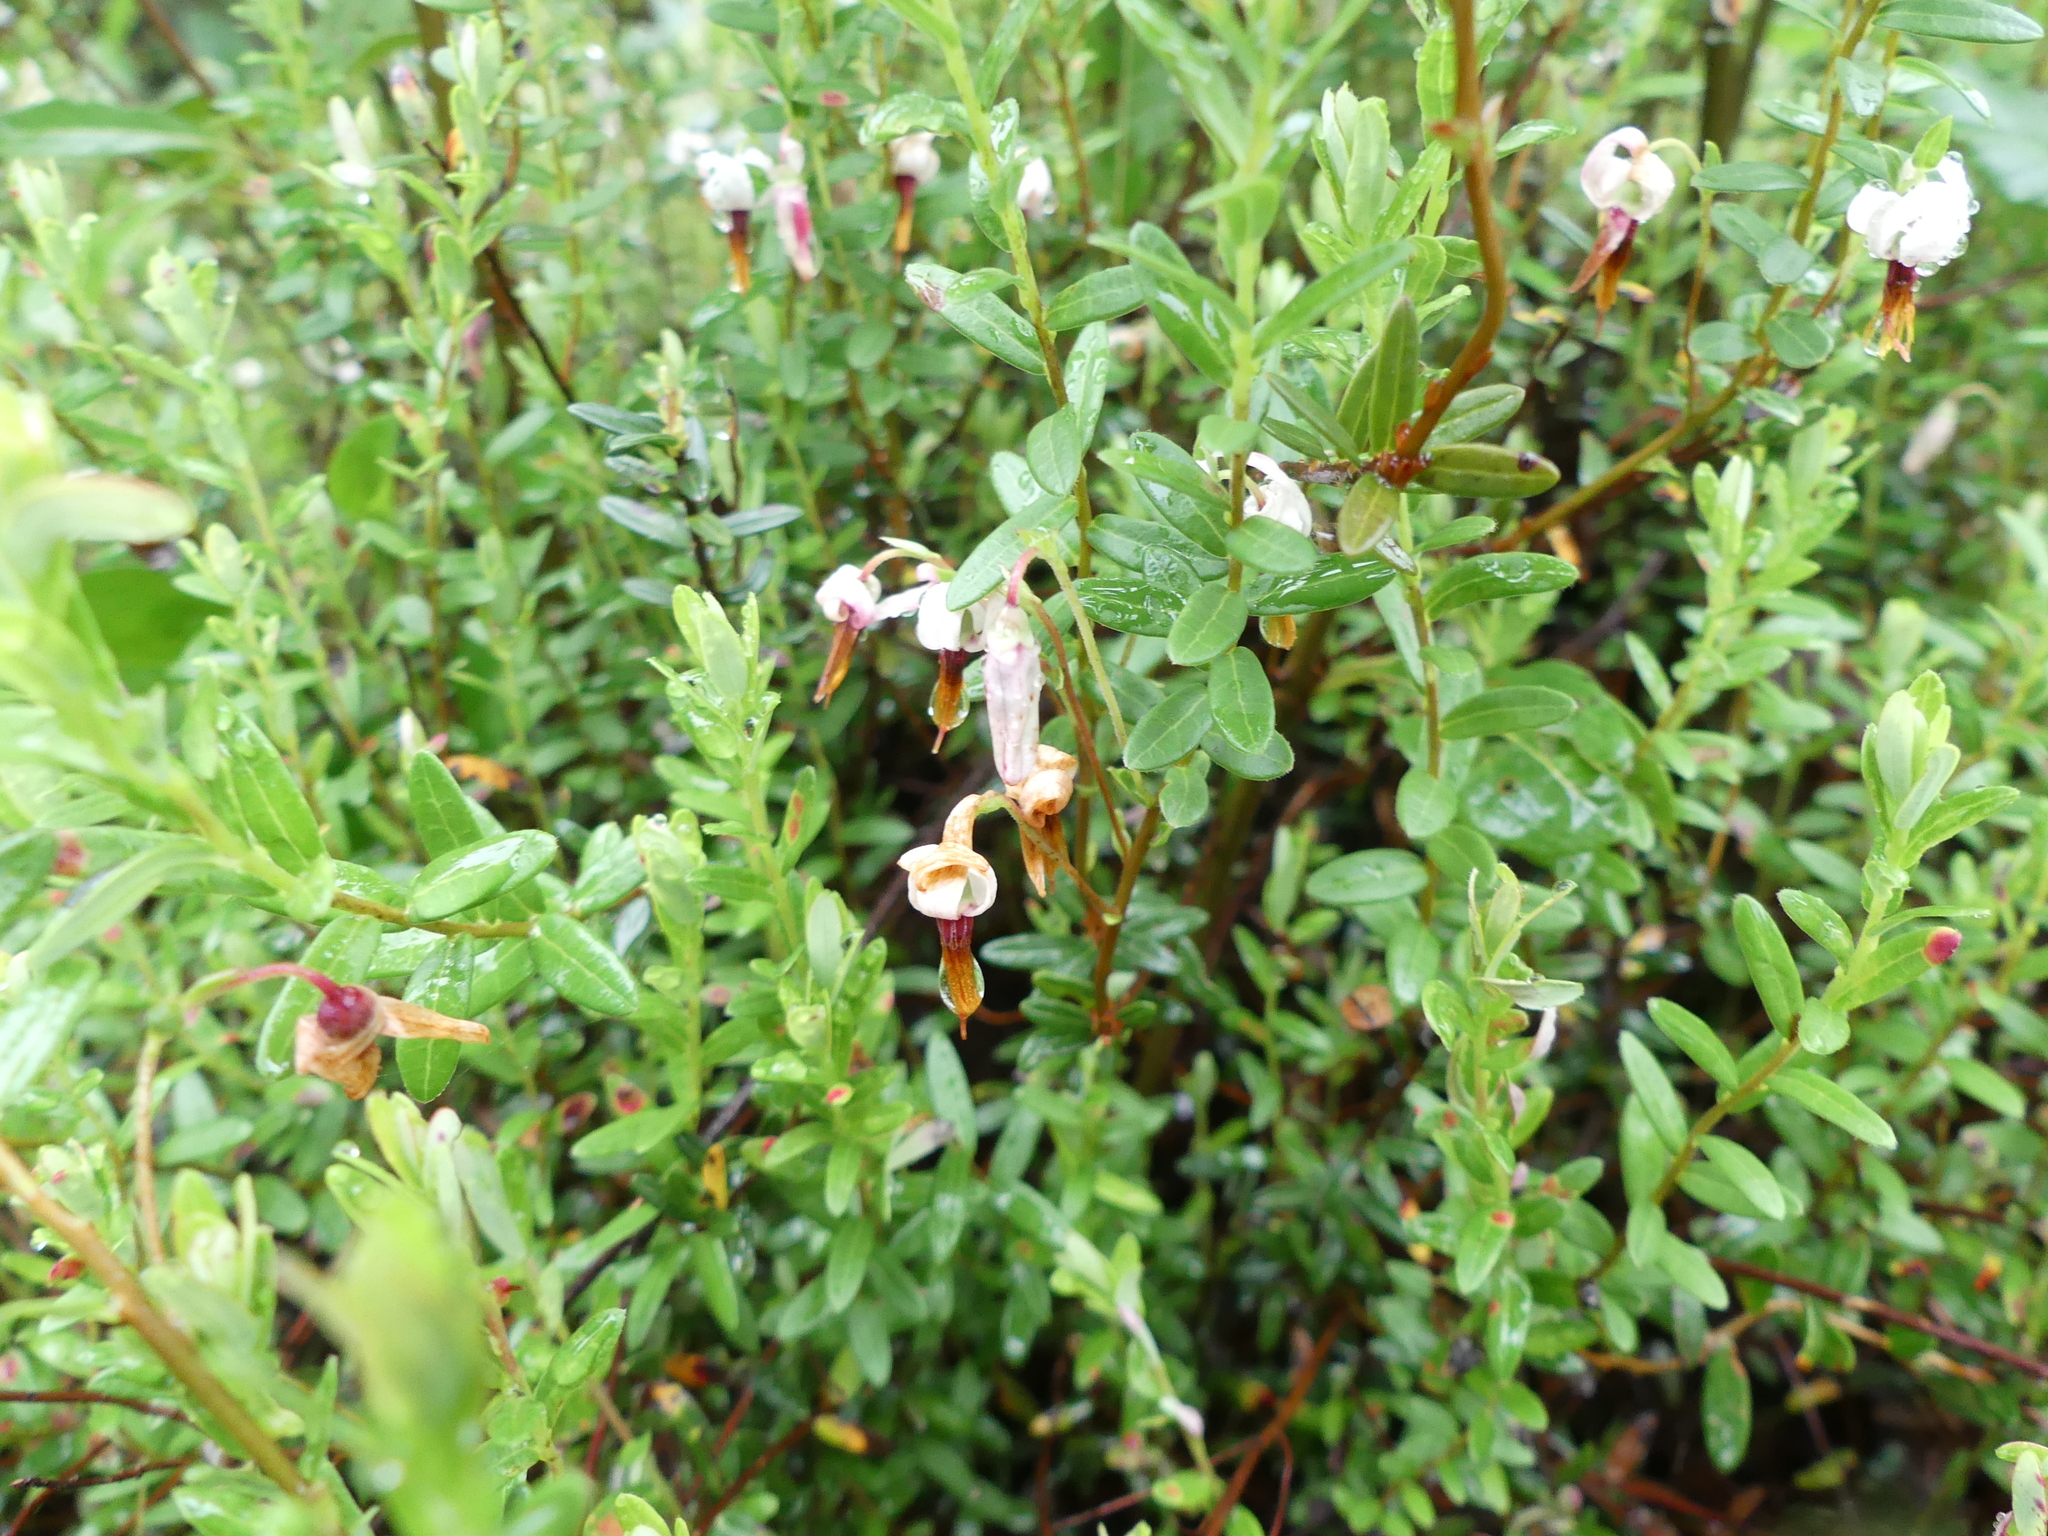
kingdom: Plantae
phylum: Tracheophyta
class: Magnoliopsida
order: Ericales
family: Ericaceae
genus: Vaccinium
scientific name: Vaccinium macrocarpon
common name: American cranberry
